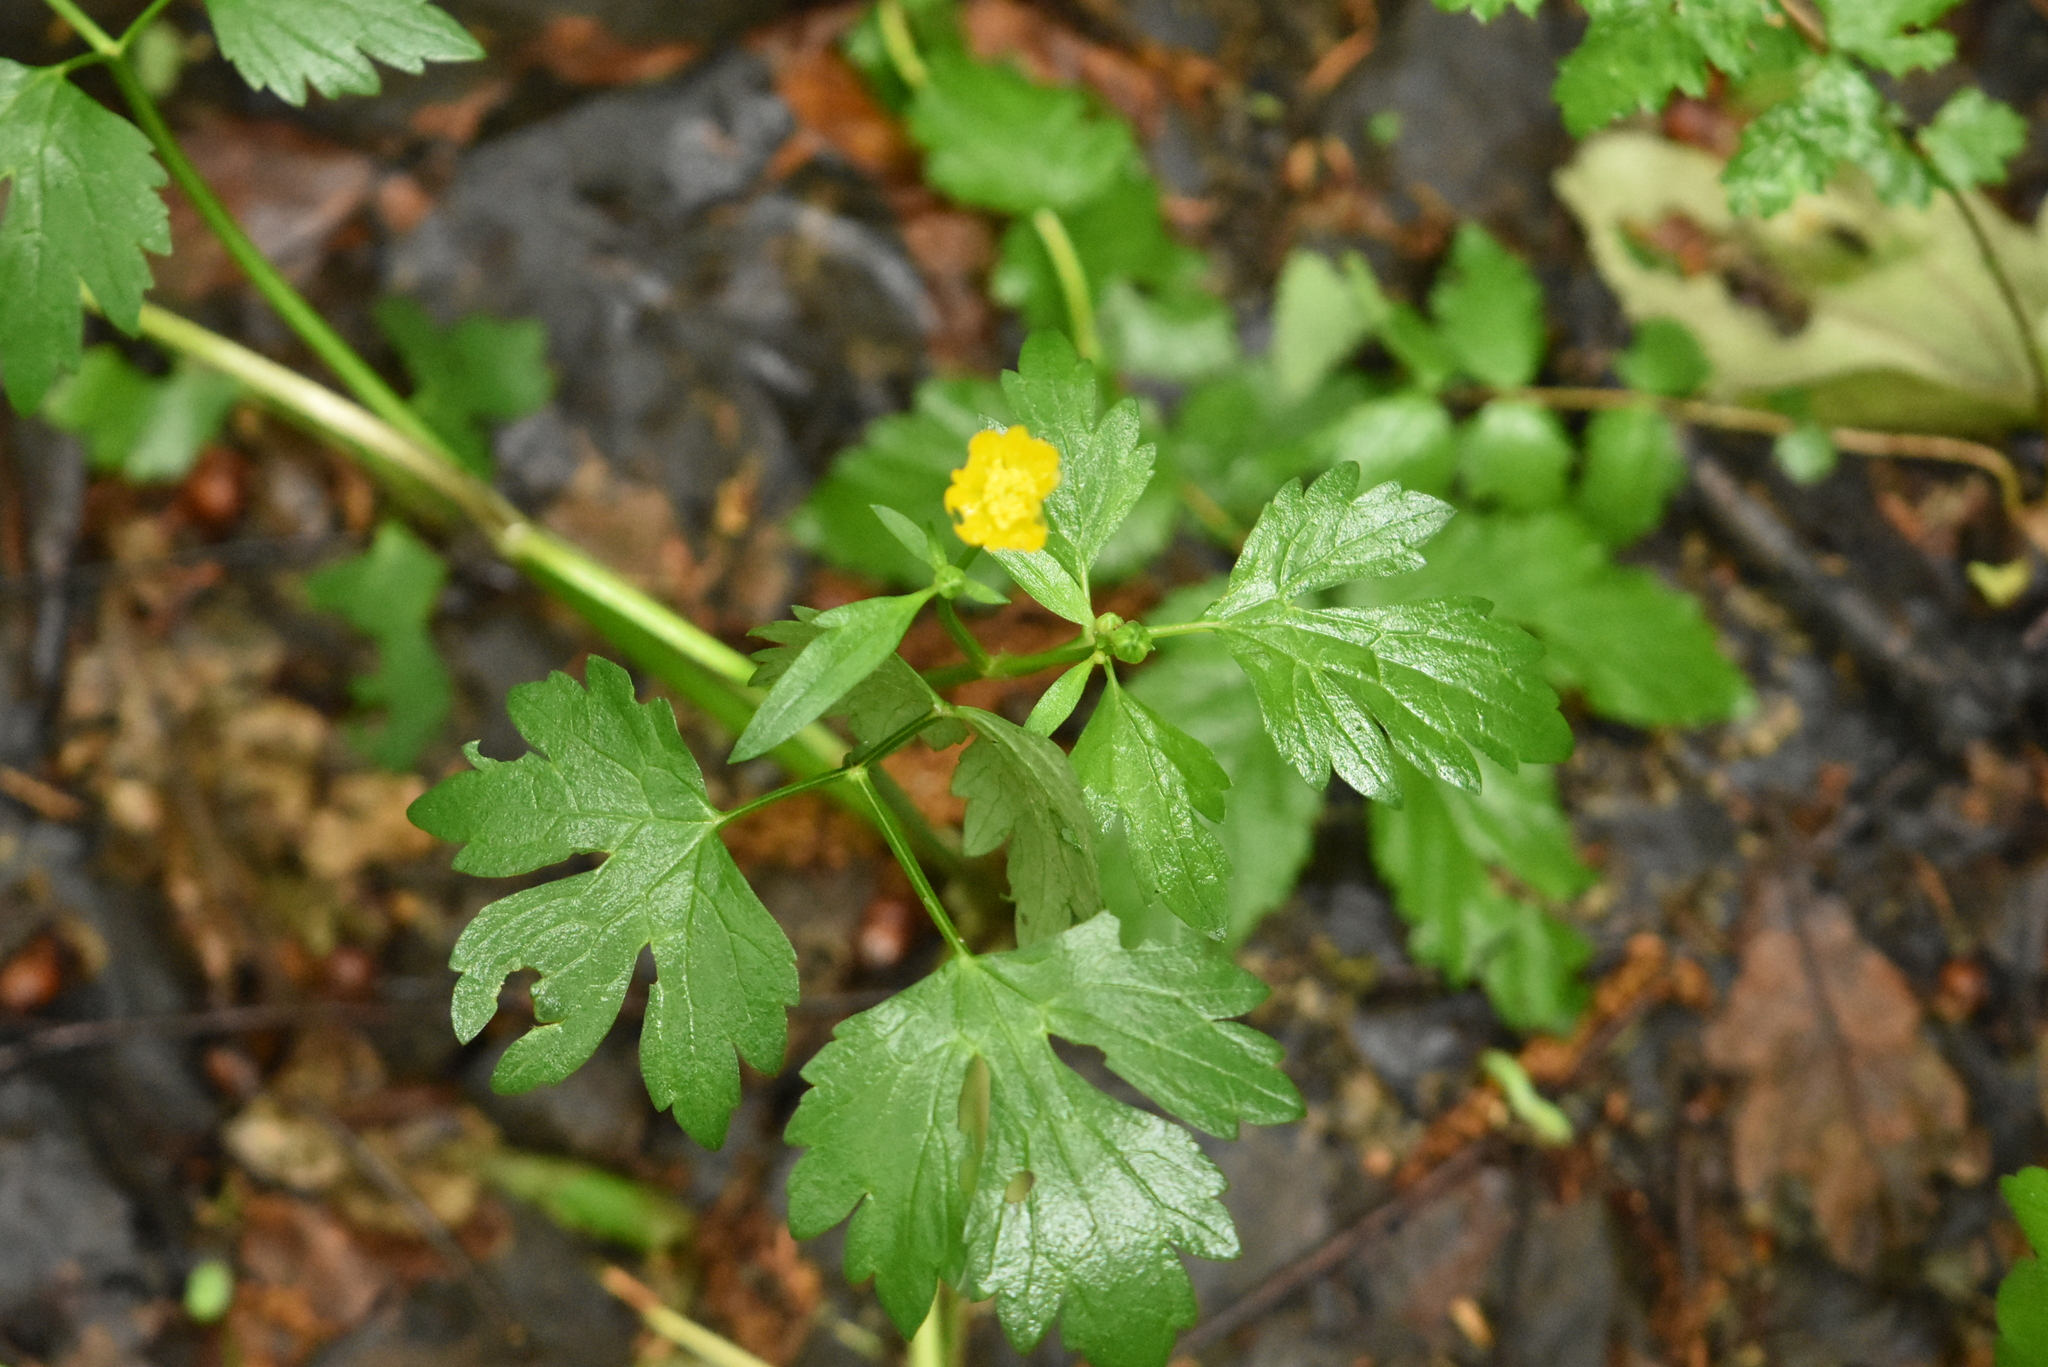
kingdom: Plantae
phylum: Tracheophyta
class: Magnoliopsida
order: Ranunculales
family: Ranunculaceae
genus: Ranunculus
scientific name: Ranunculus repens
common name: Creeping buttercup
